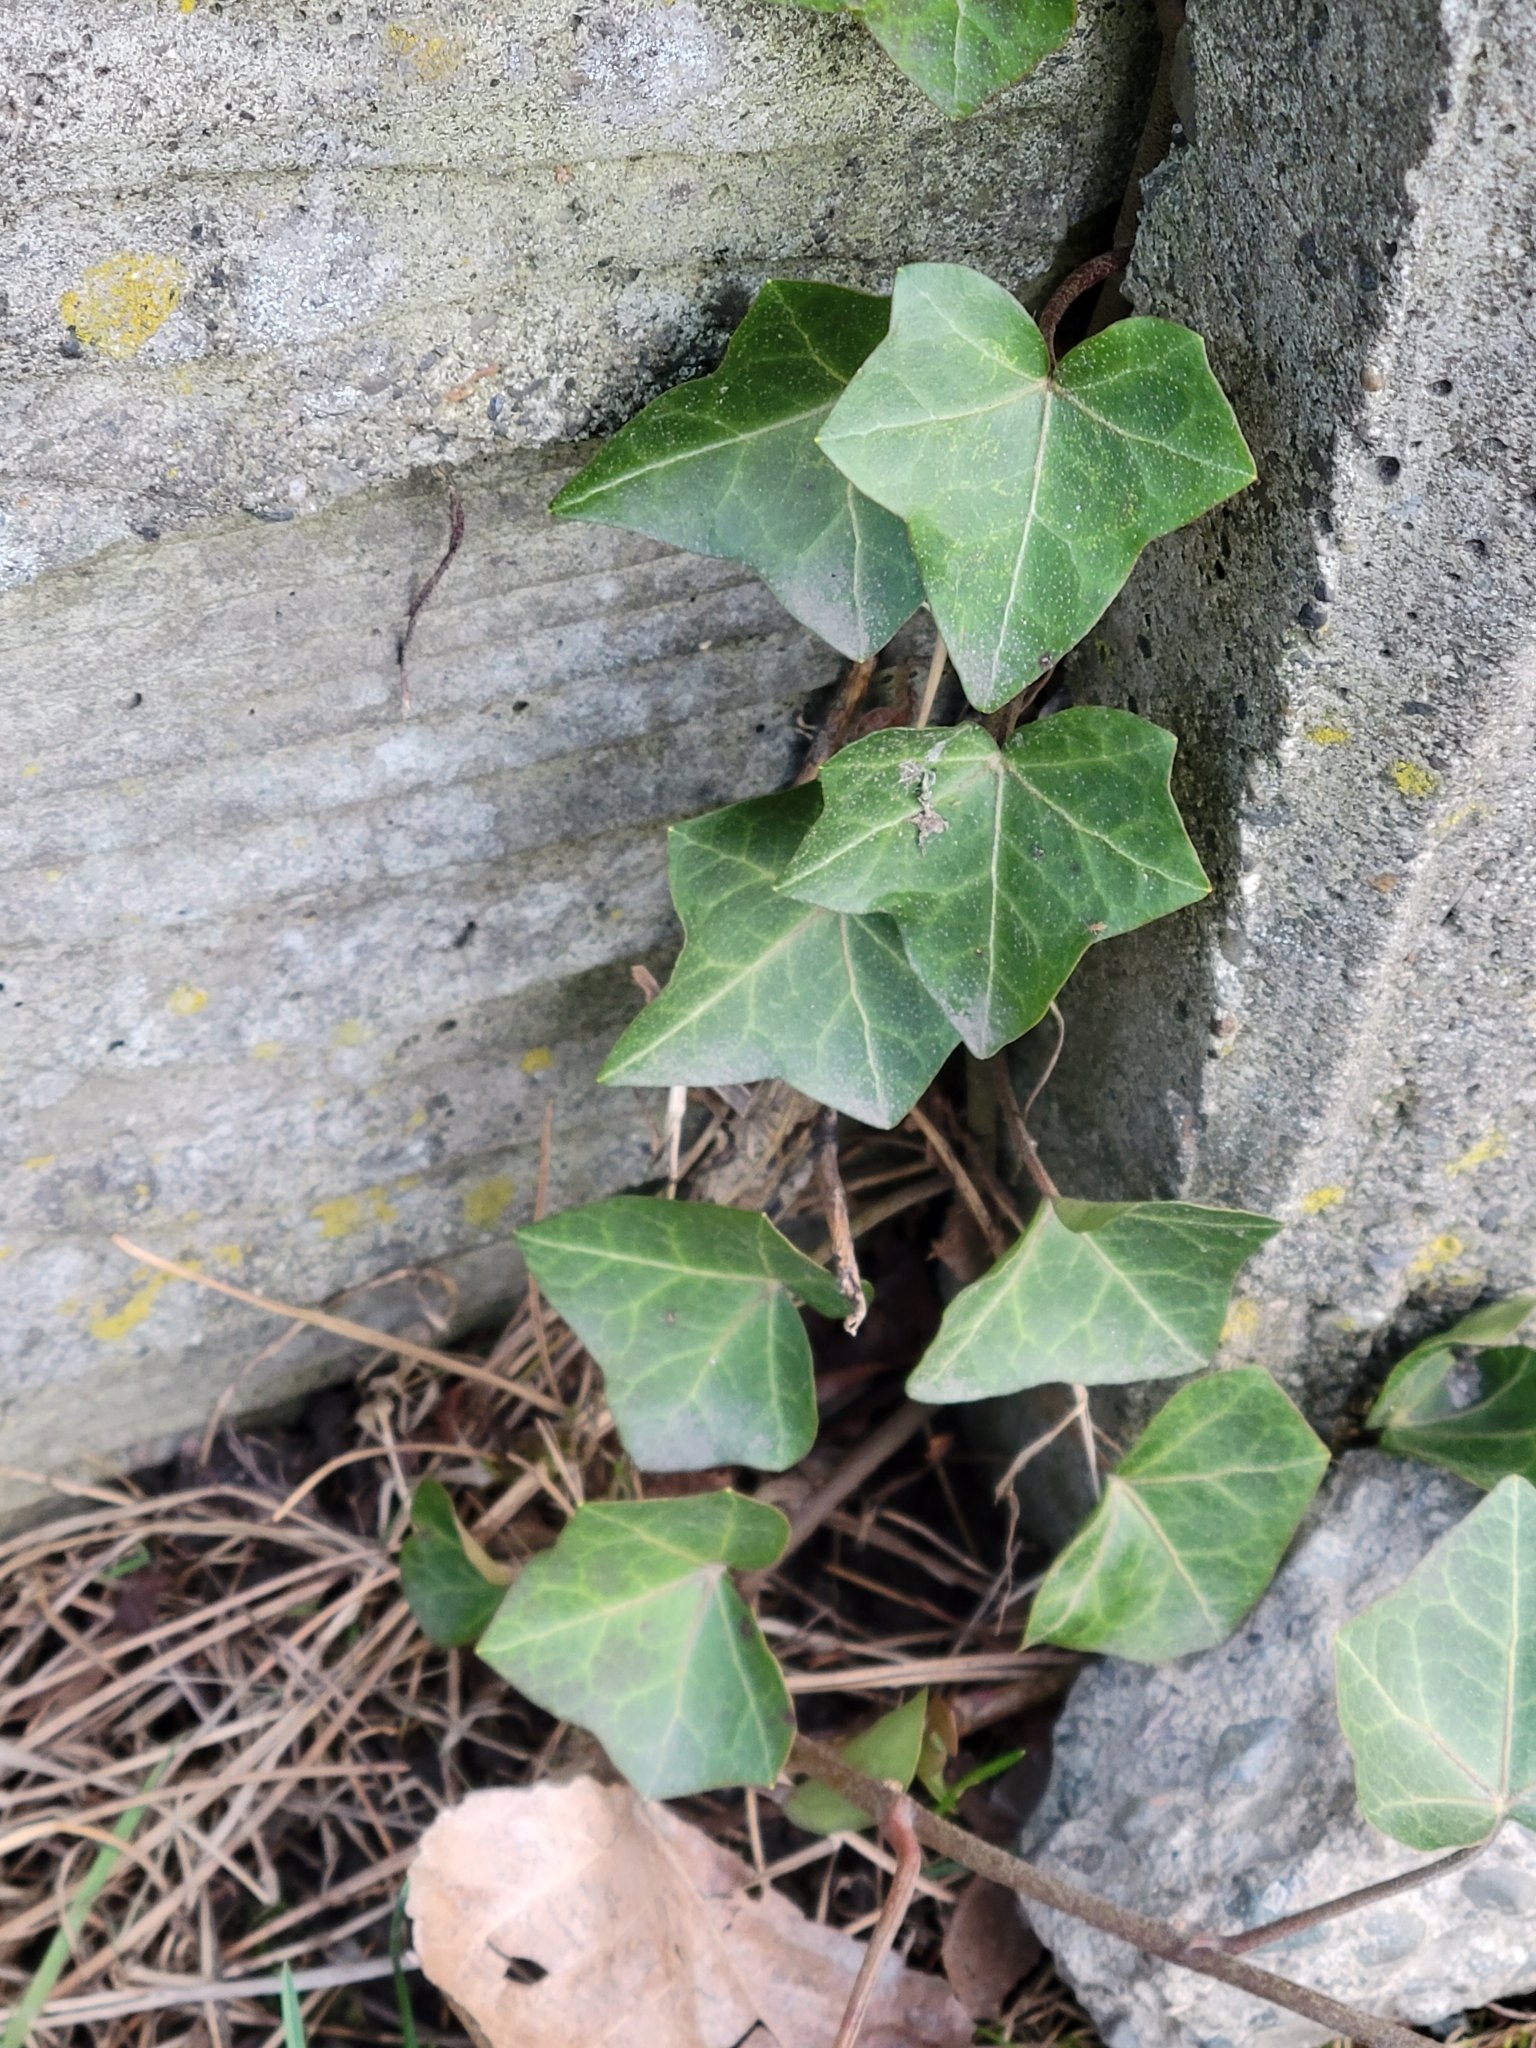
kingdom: Plantae
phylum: Tracheophyta
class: Magnoliopsida
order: Apiales
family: Araliaceae
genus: Hedera
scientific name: Hedera helix
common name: Ivy
